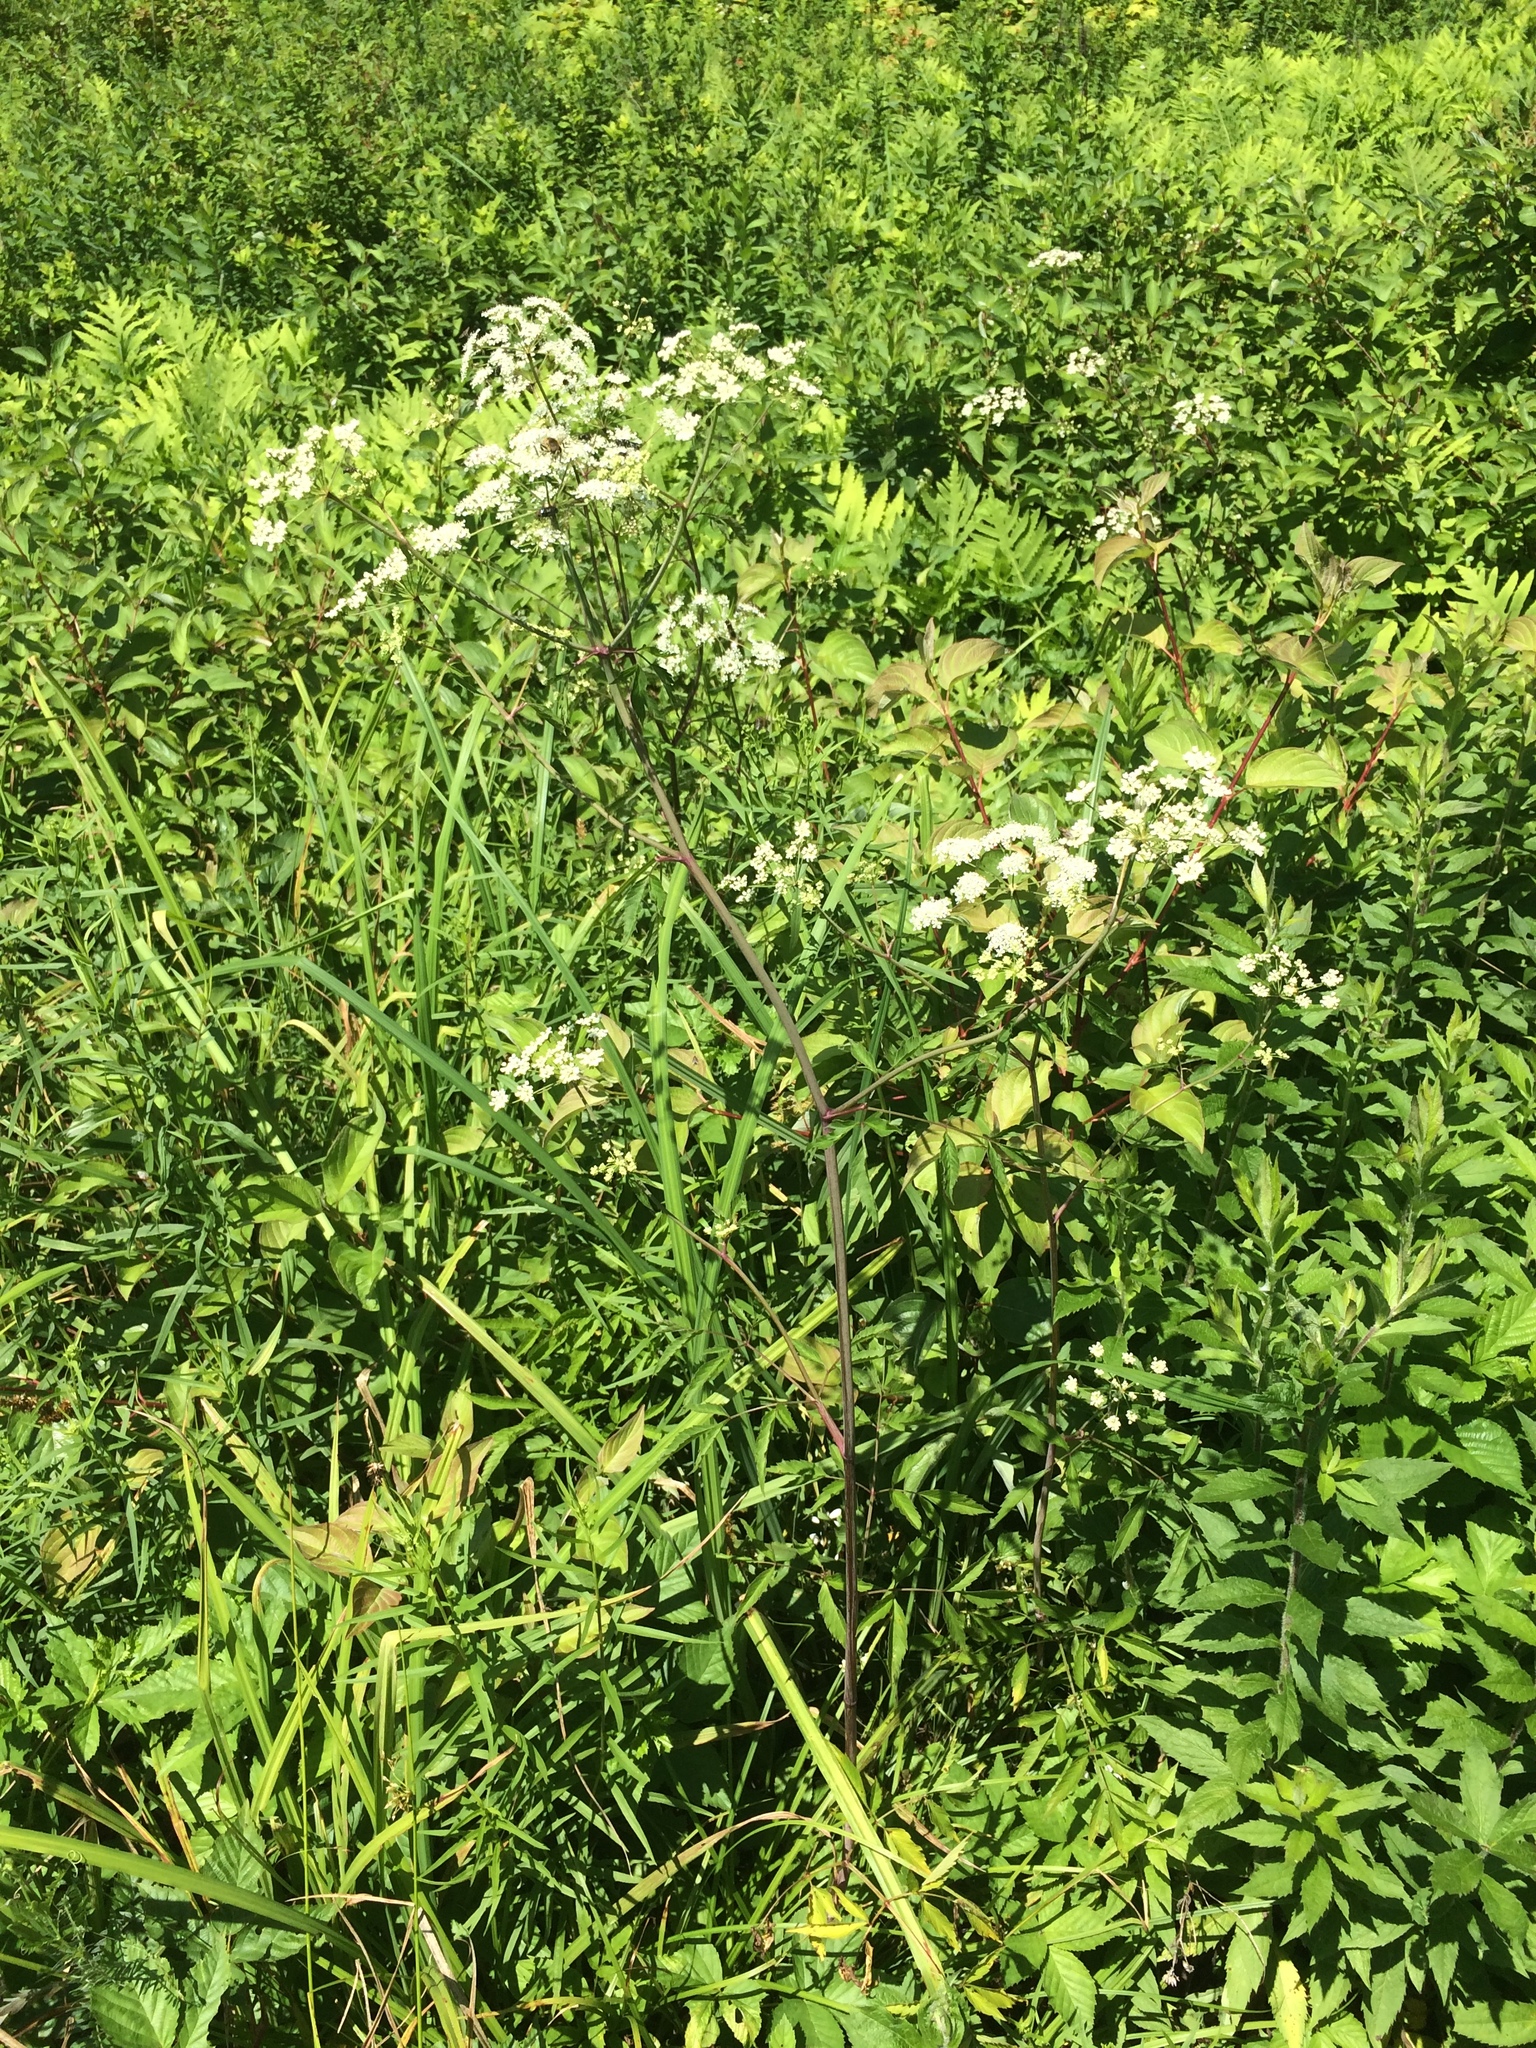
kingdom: Plantae
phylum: Tracheophyta
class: Magnoliopsida
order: Apiales
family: Apiaceae
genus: Cicuta
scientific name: Cicuta maculata
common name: Spotted cowbane
